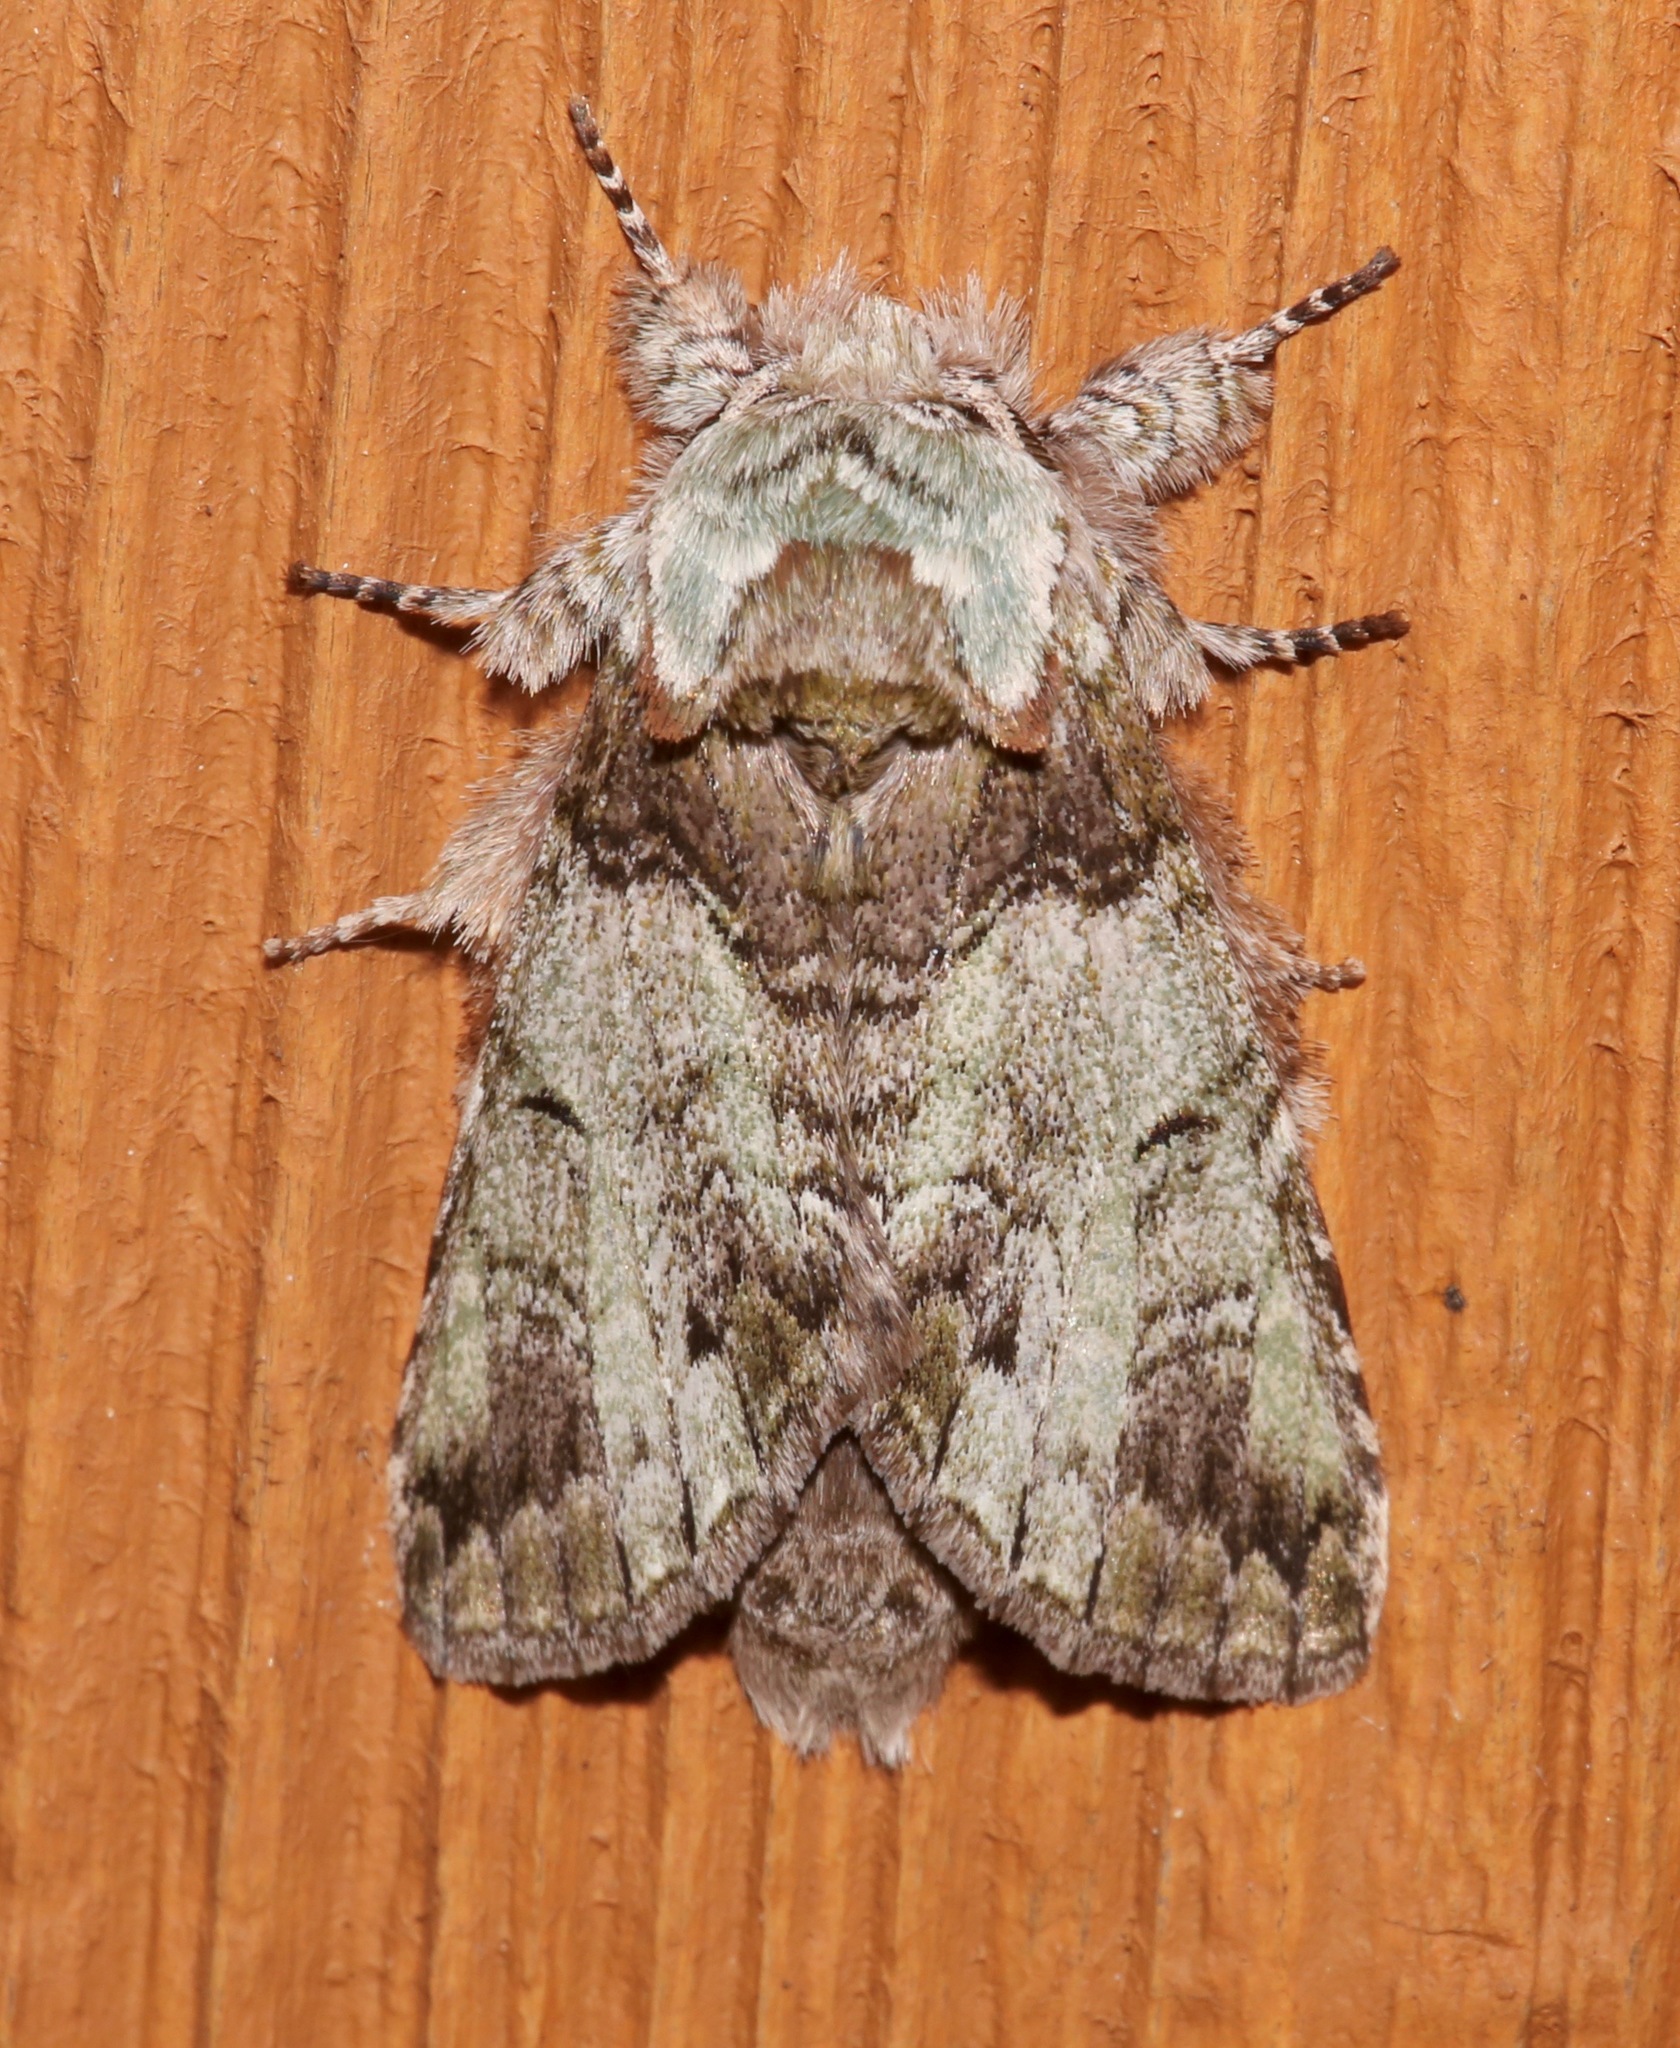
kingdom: Animalia
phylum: Arthropoda
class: Insecta
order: Lepidoptera
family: Notodontidae
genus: Macrurocampa
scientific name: Macrurocampa marthesia
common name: Mottled prominent
